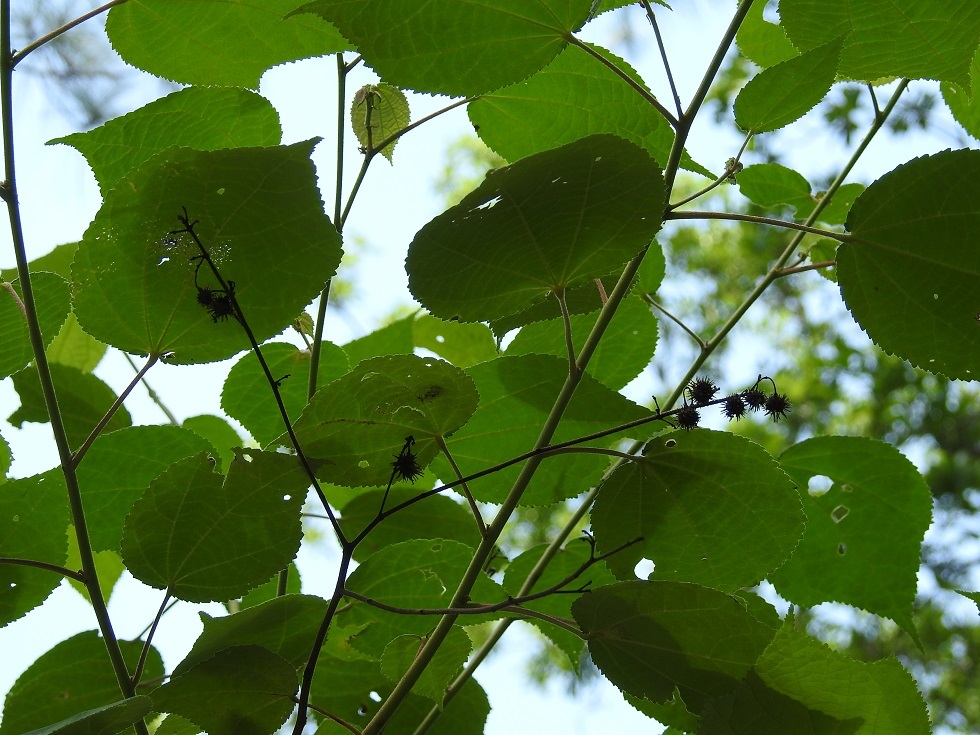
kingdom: Plantae
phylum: Tracheophyta
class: Magnoliopsida
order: Malvales
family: Malvaceae
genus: Triumfetta
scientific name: Triumfetta calderonii
